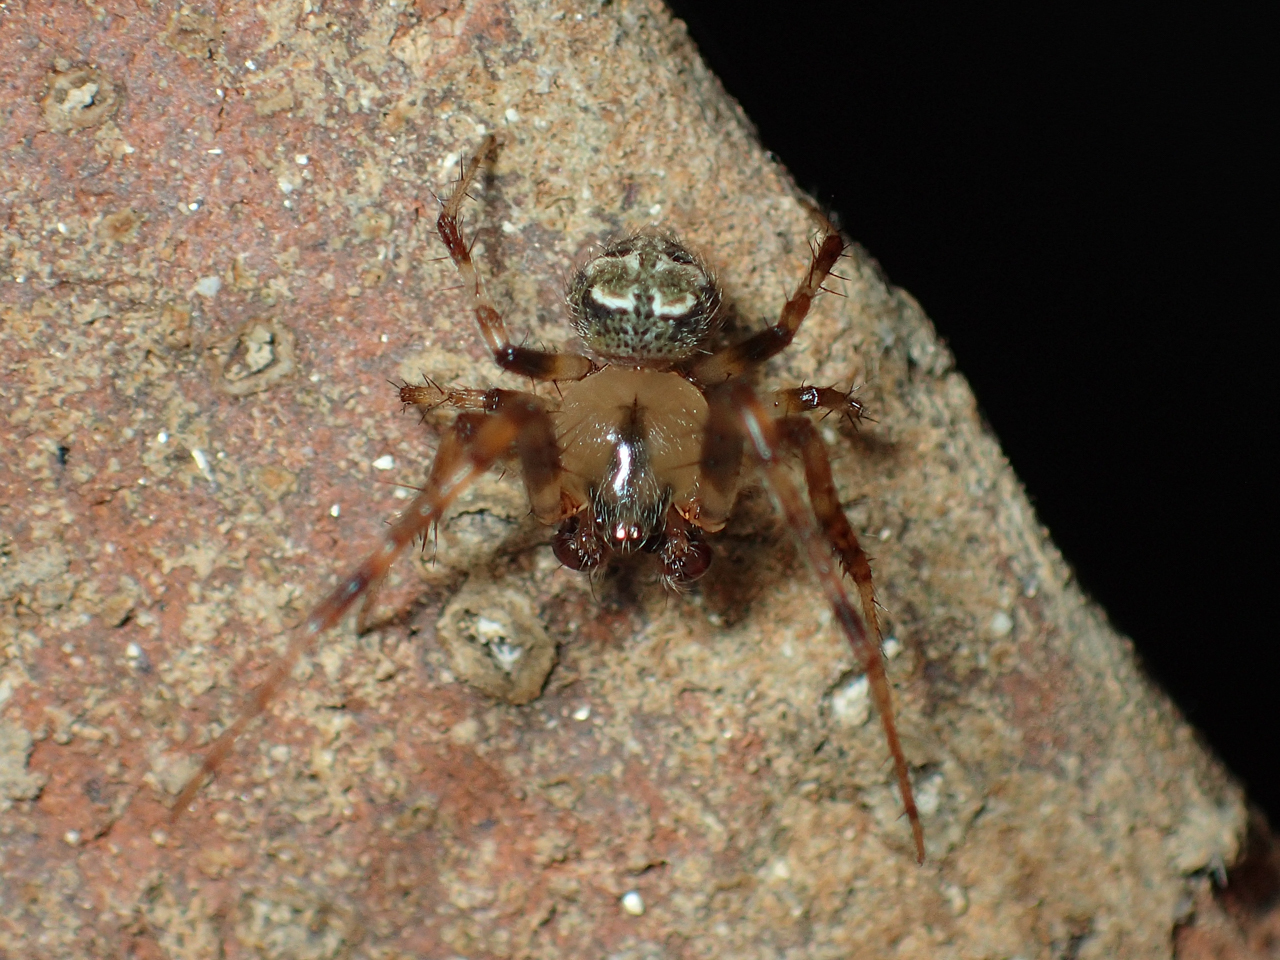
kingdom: Animalia
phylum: Arthropoda
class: Arachnida
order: Araneae
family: Araneidae
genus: Araneus
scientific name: Araneus pegnia
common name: Orb weavers
